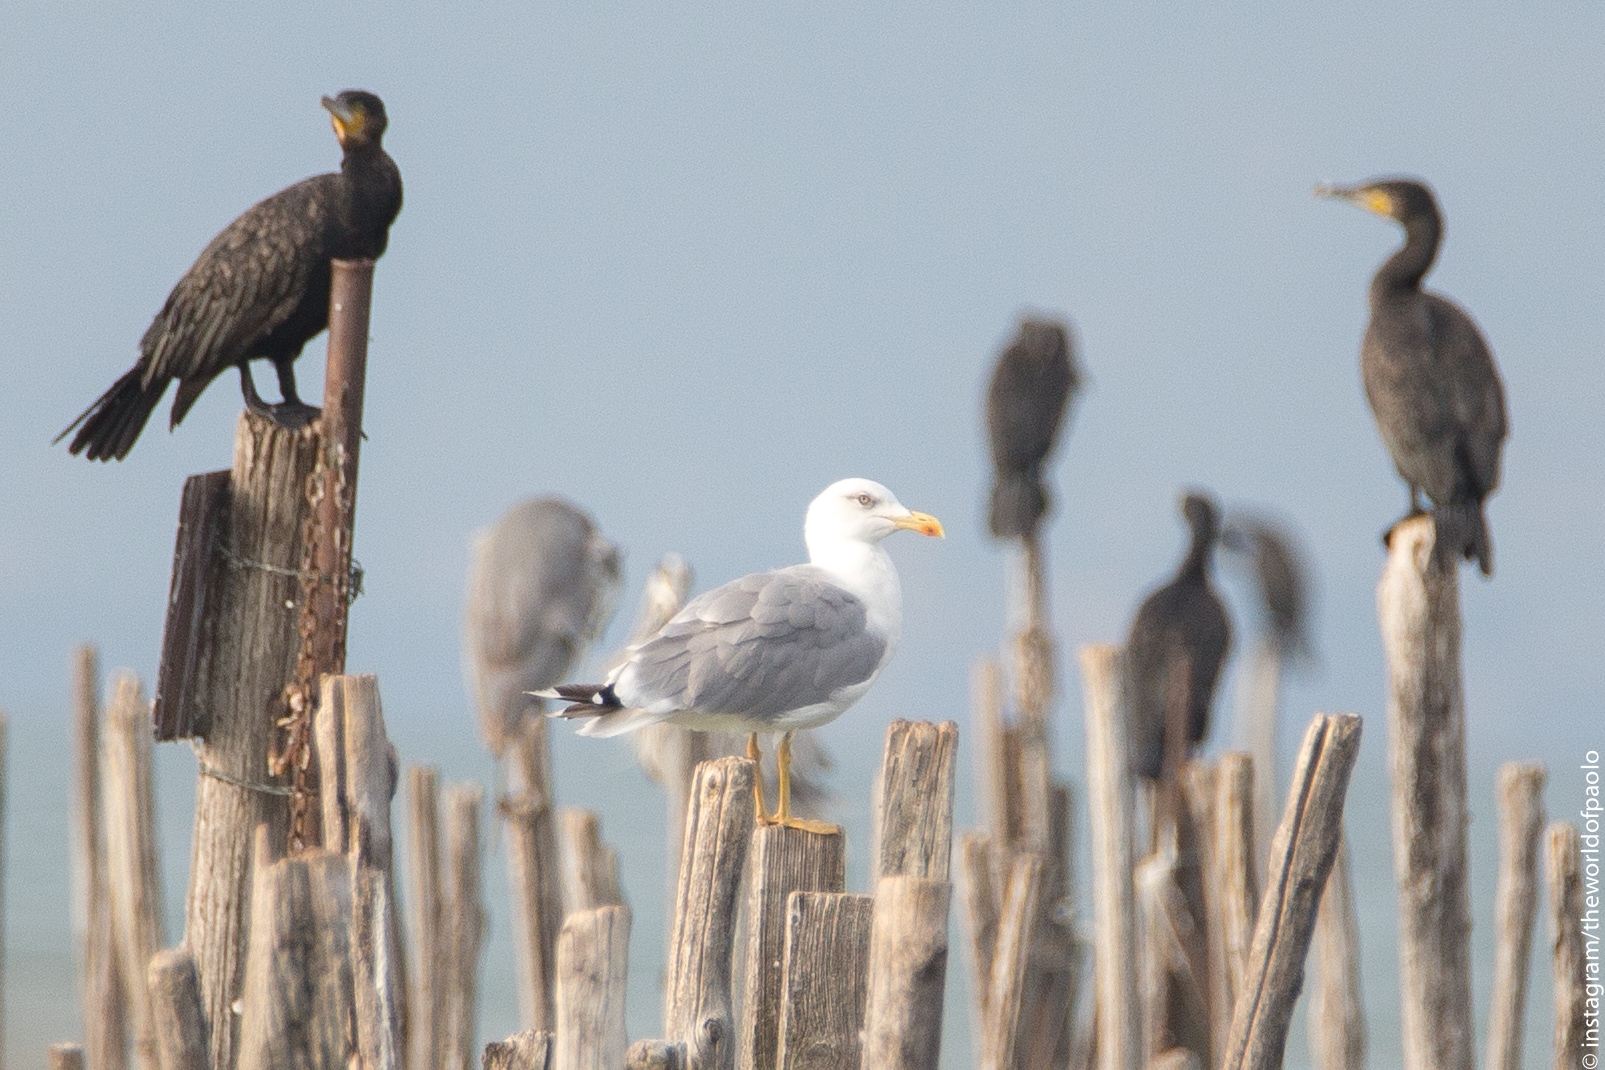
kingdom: Animalia
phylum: Chordata
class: Aves
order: Charadriiformes
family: Laridae
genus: Larus
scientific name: Larus michahellis
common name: Yellow-legged gull
